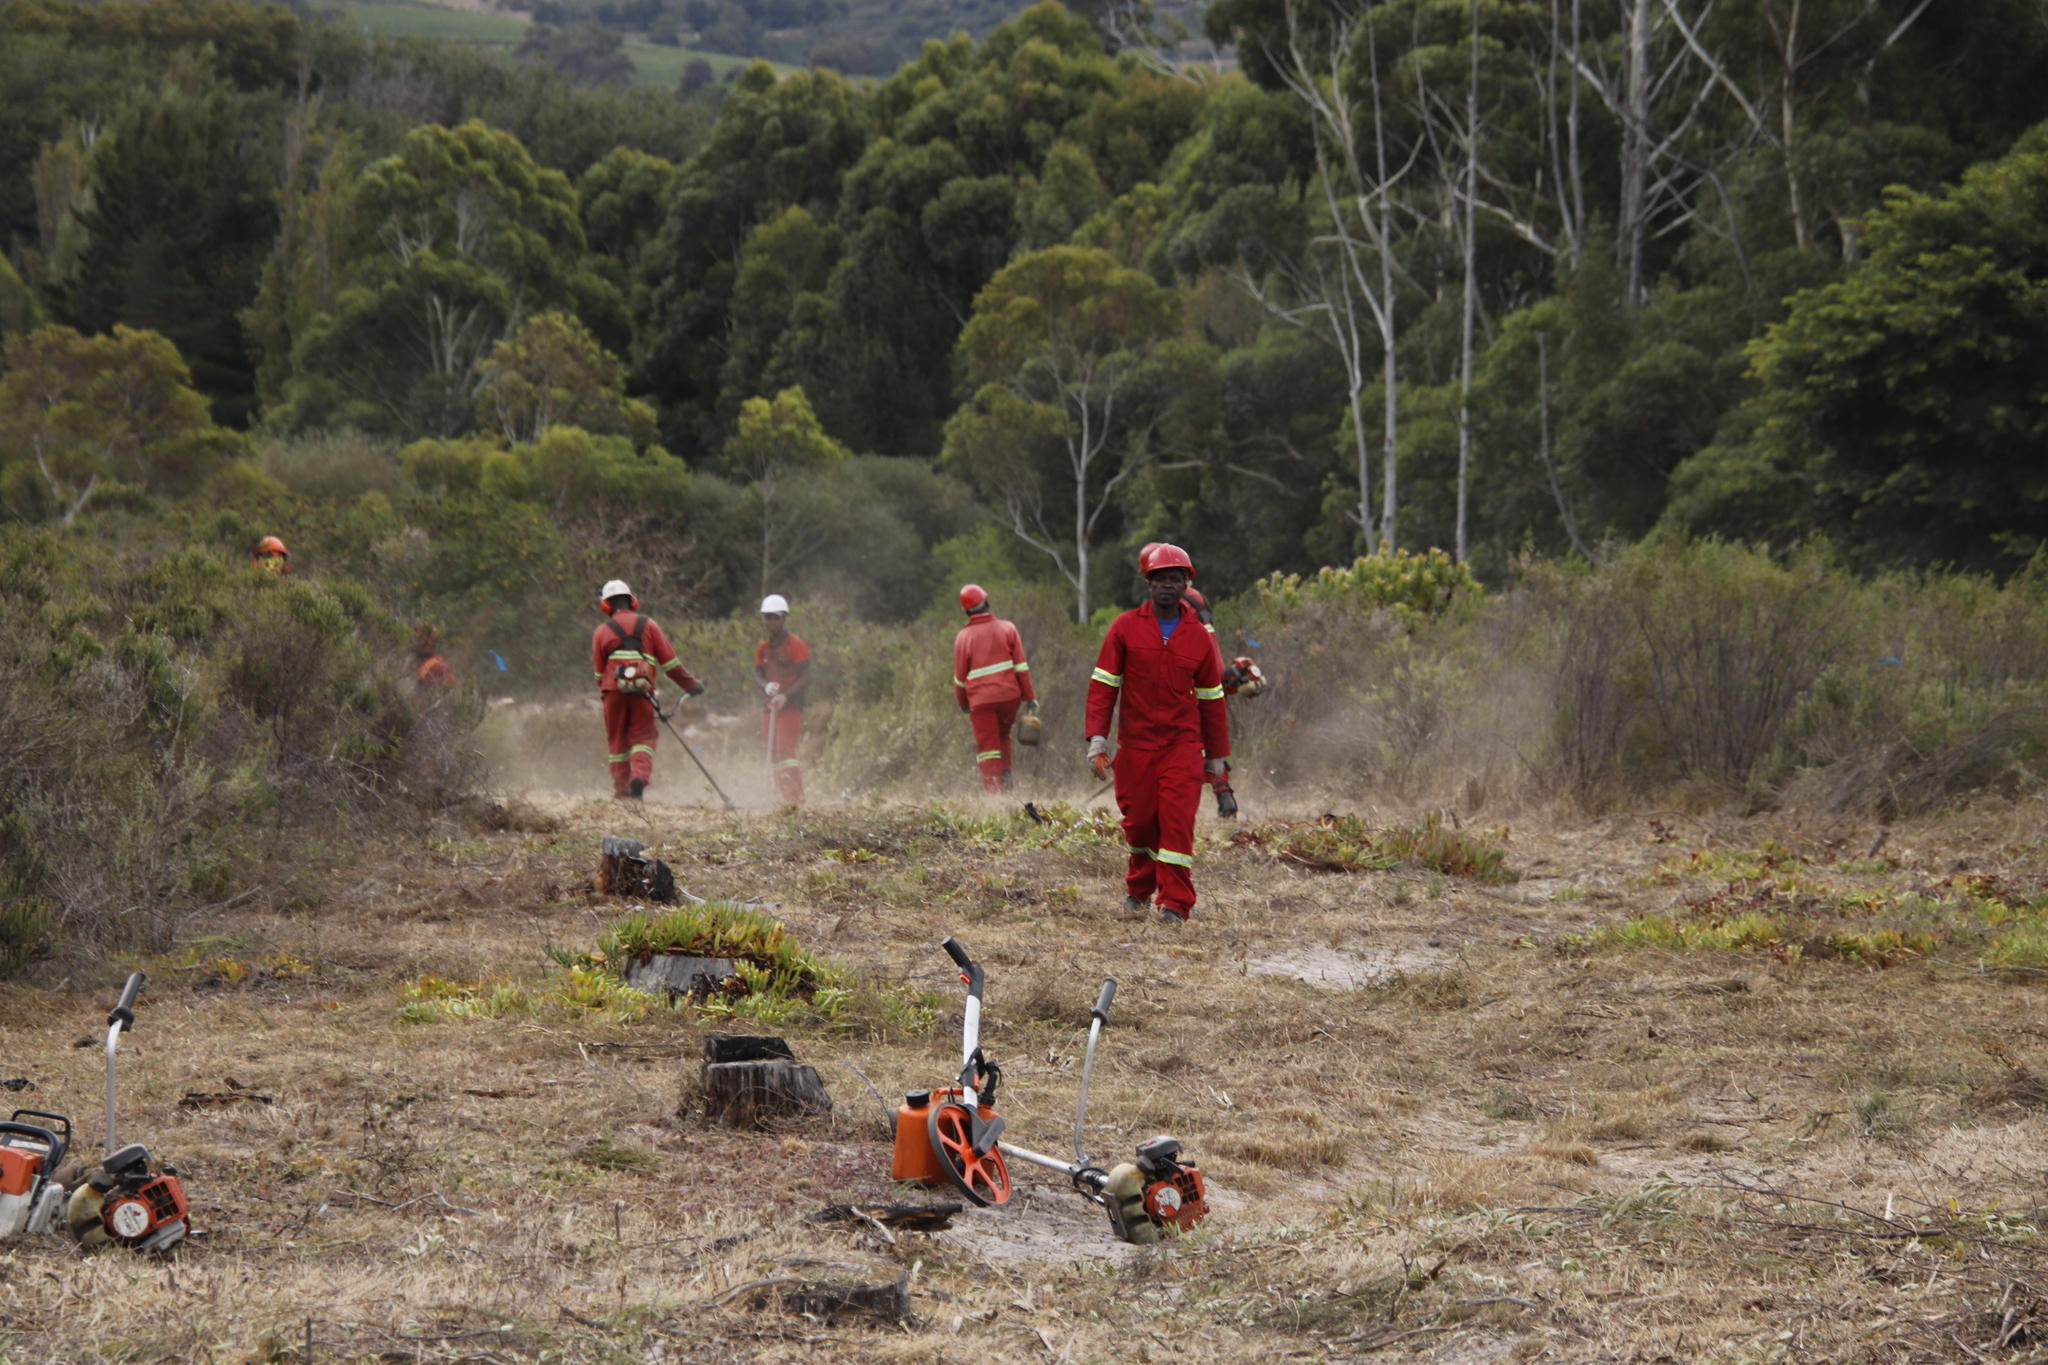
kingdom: Plantae
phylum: Tracheophyta
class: Magnoliopsida
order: Caryophyllales
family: Aizoaceae
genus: Carpobrotus
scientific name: Carpobrotus edulis
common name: Hottentot-fig
